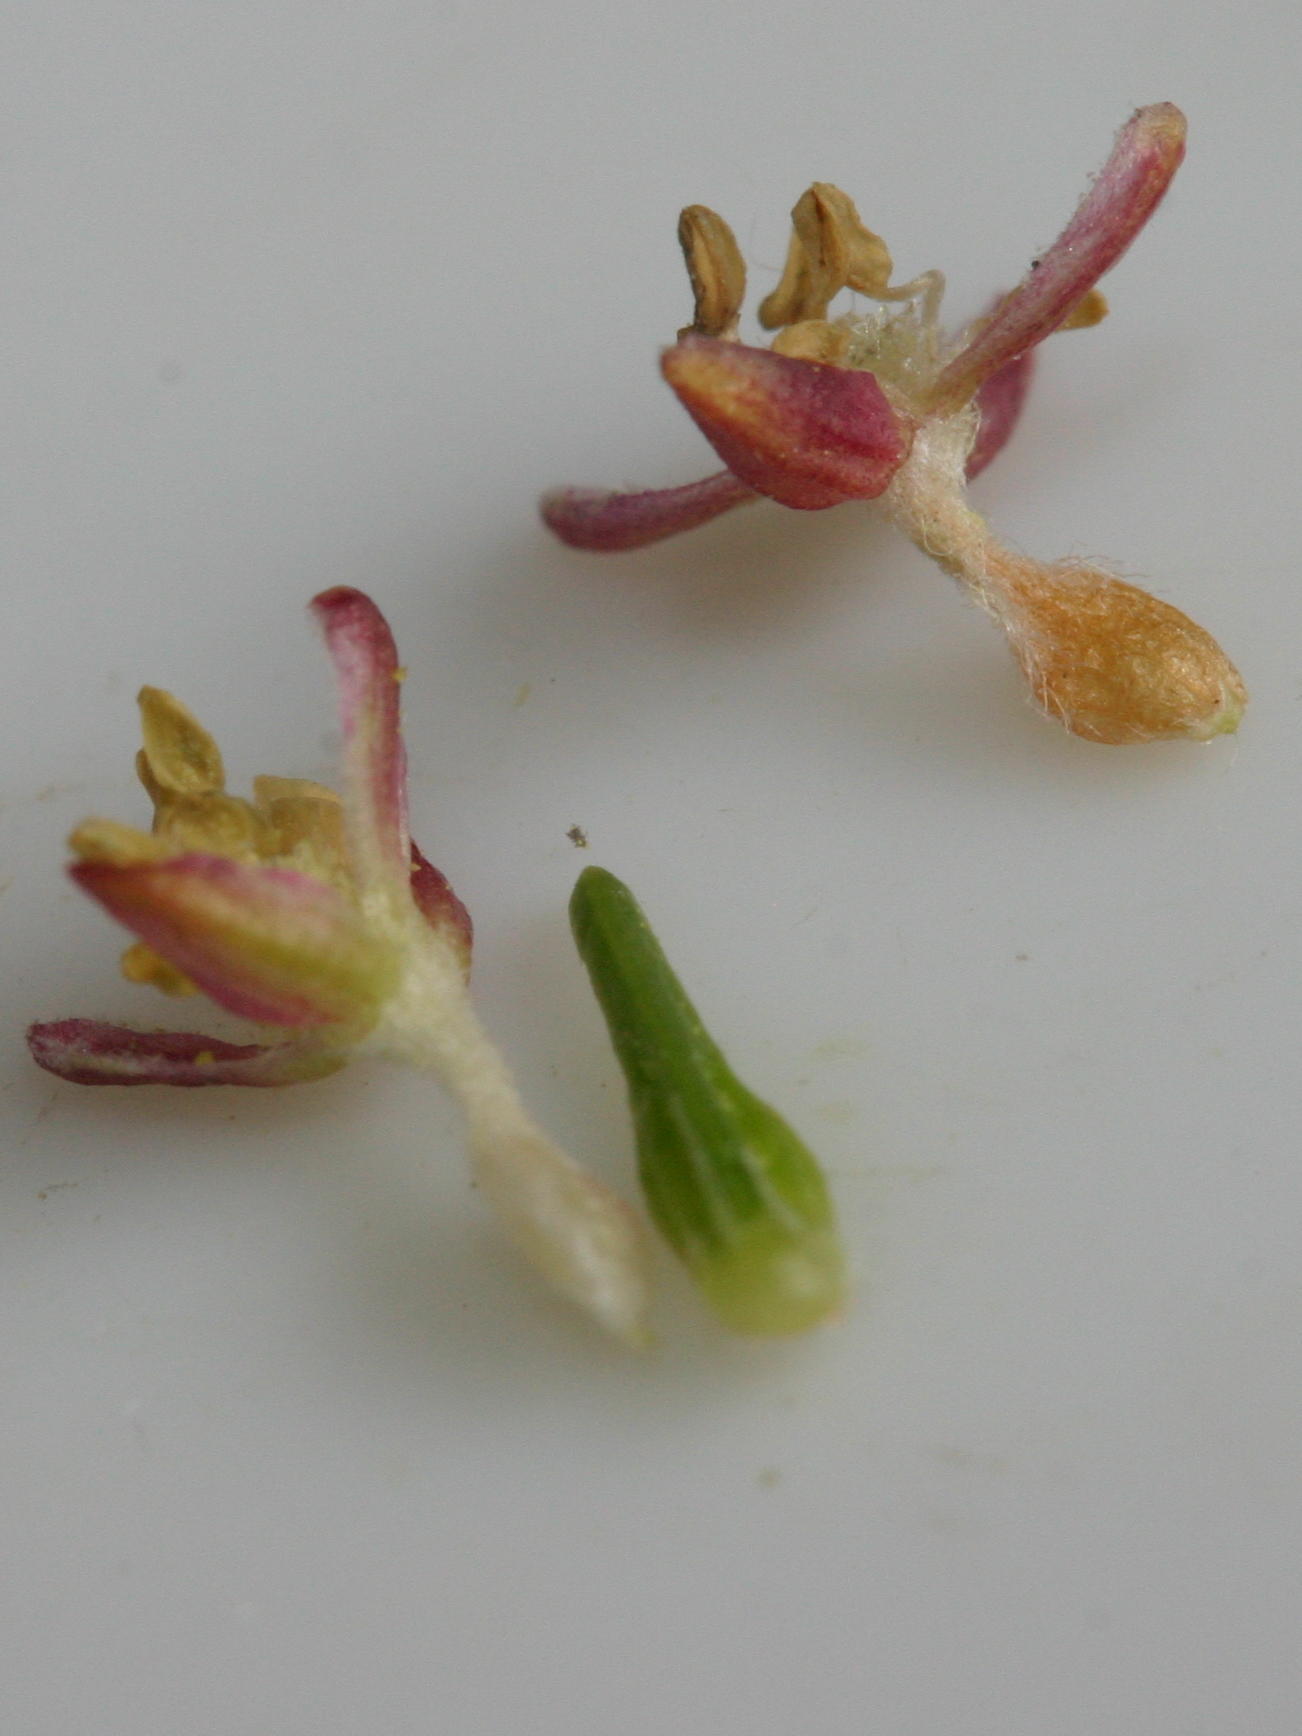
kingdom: Plantae
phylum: Tracheophyta
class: Magnoliopsida
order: Malvales
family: Thymelaeaceae
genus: Passerina
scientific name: Passerina falcifolia
